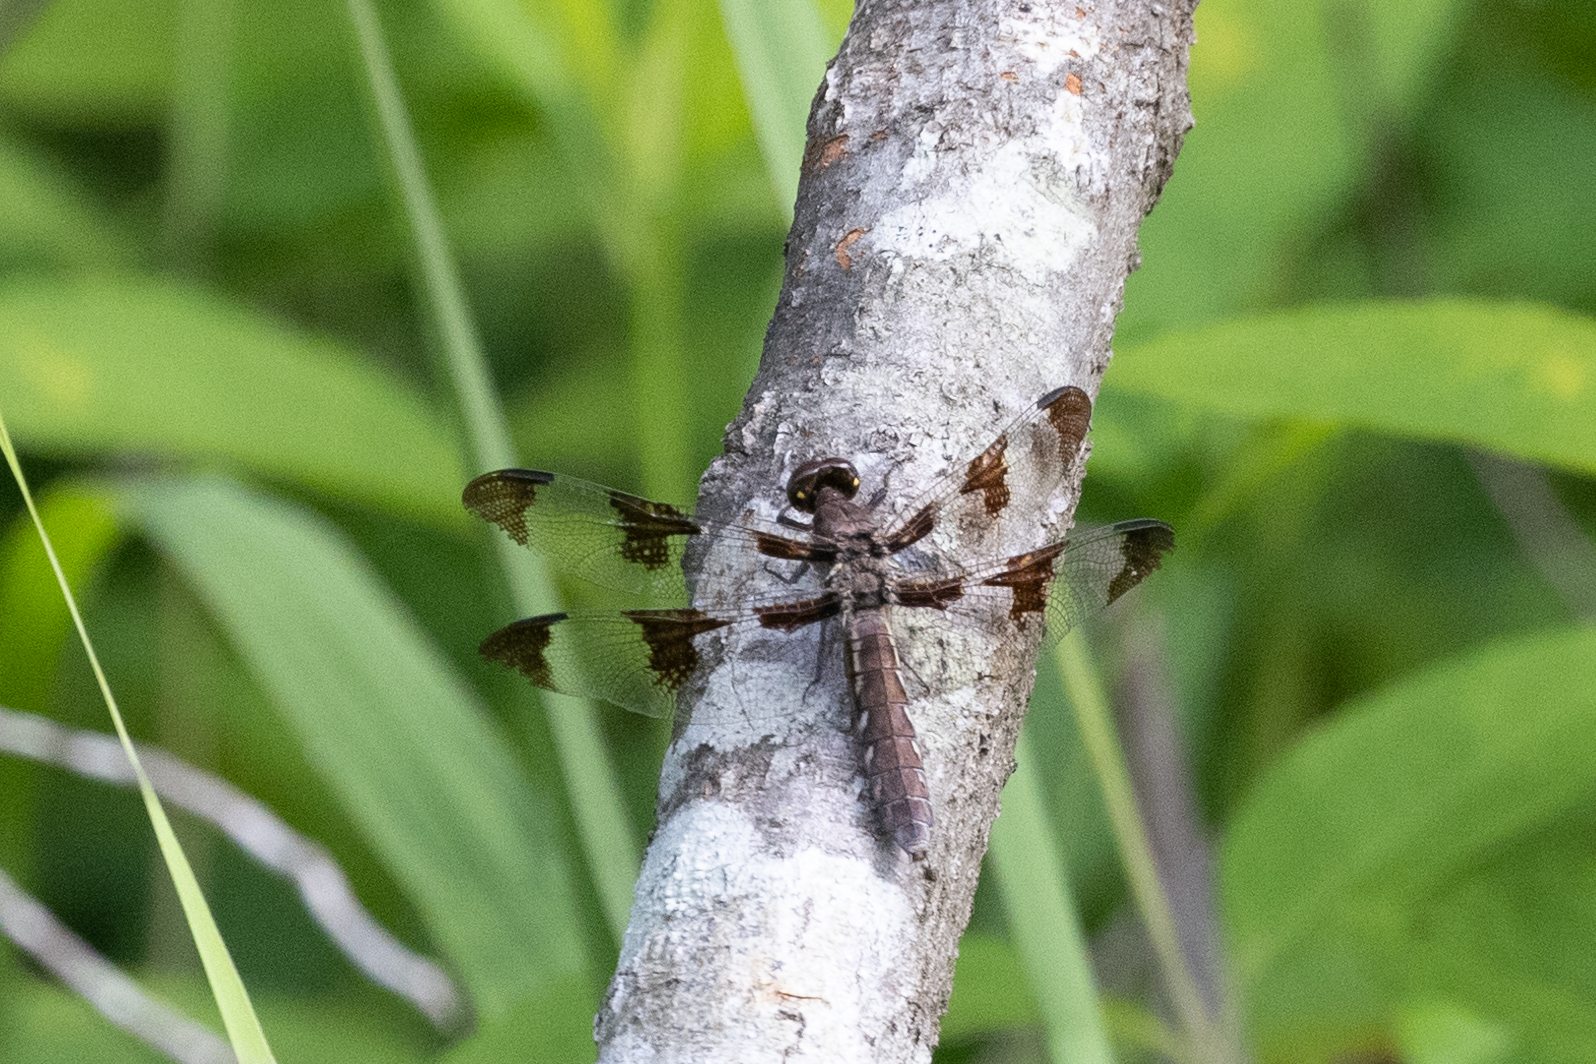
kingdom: Animalia
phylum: Arthropoda
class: Insecta
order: Odonata
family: Libellulidae
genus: Plathemis
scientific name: Plathemis lydia
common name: Common whitetail
